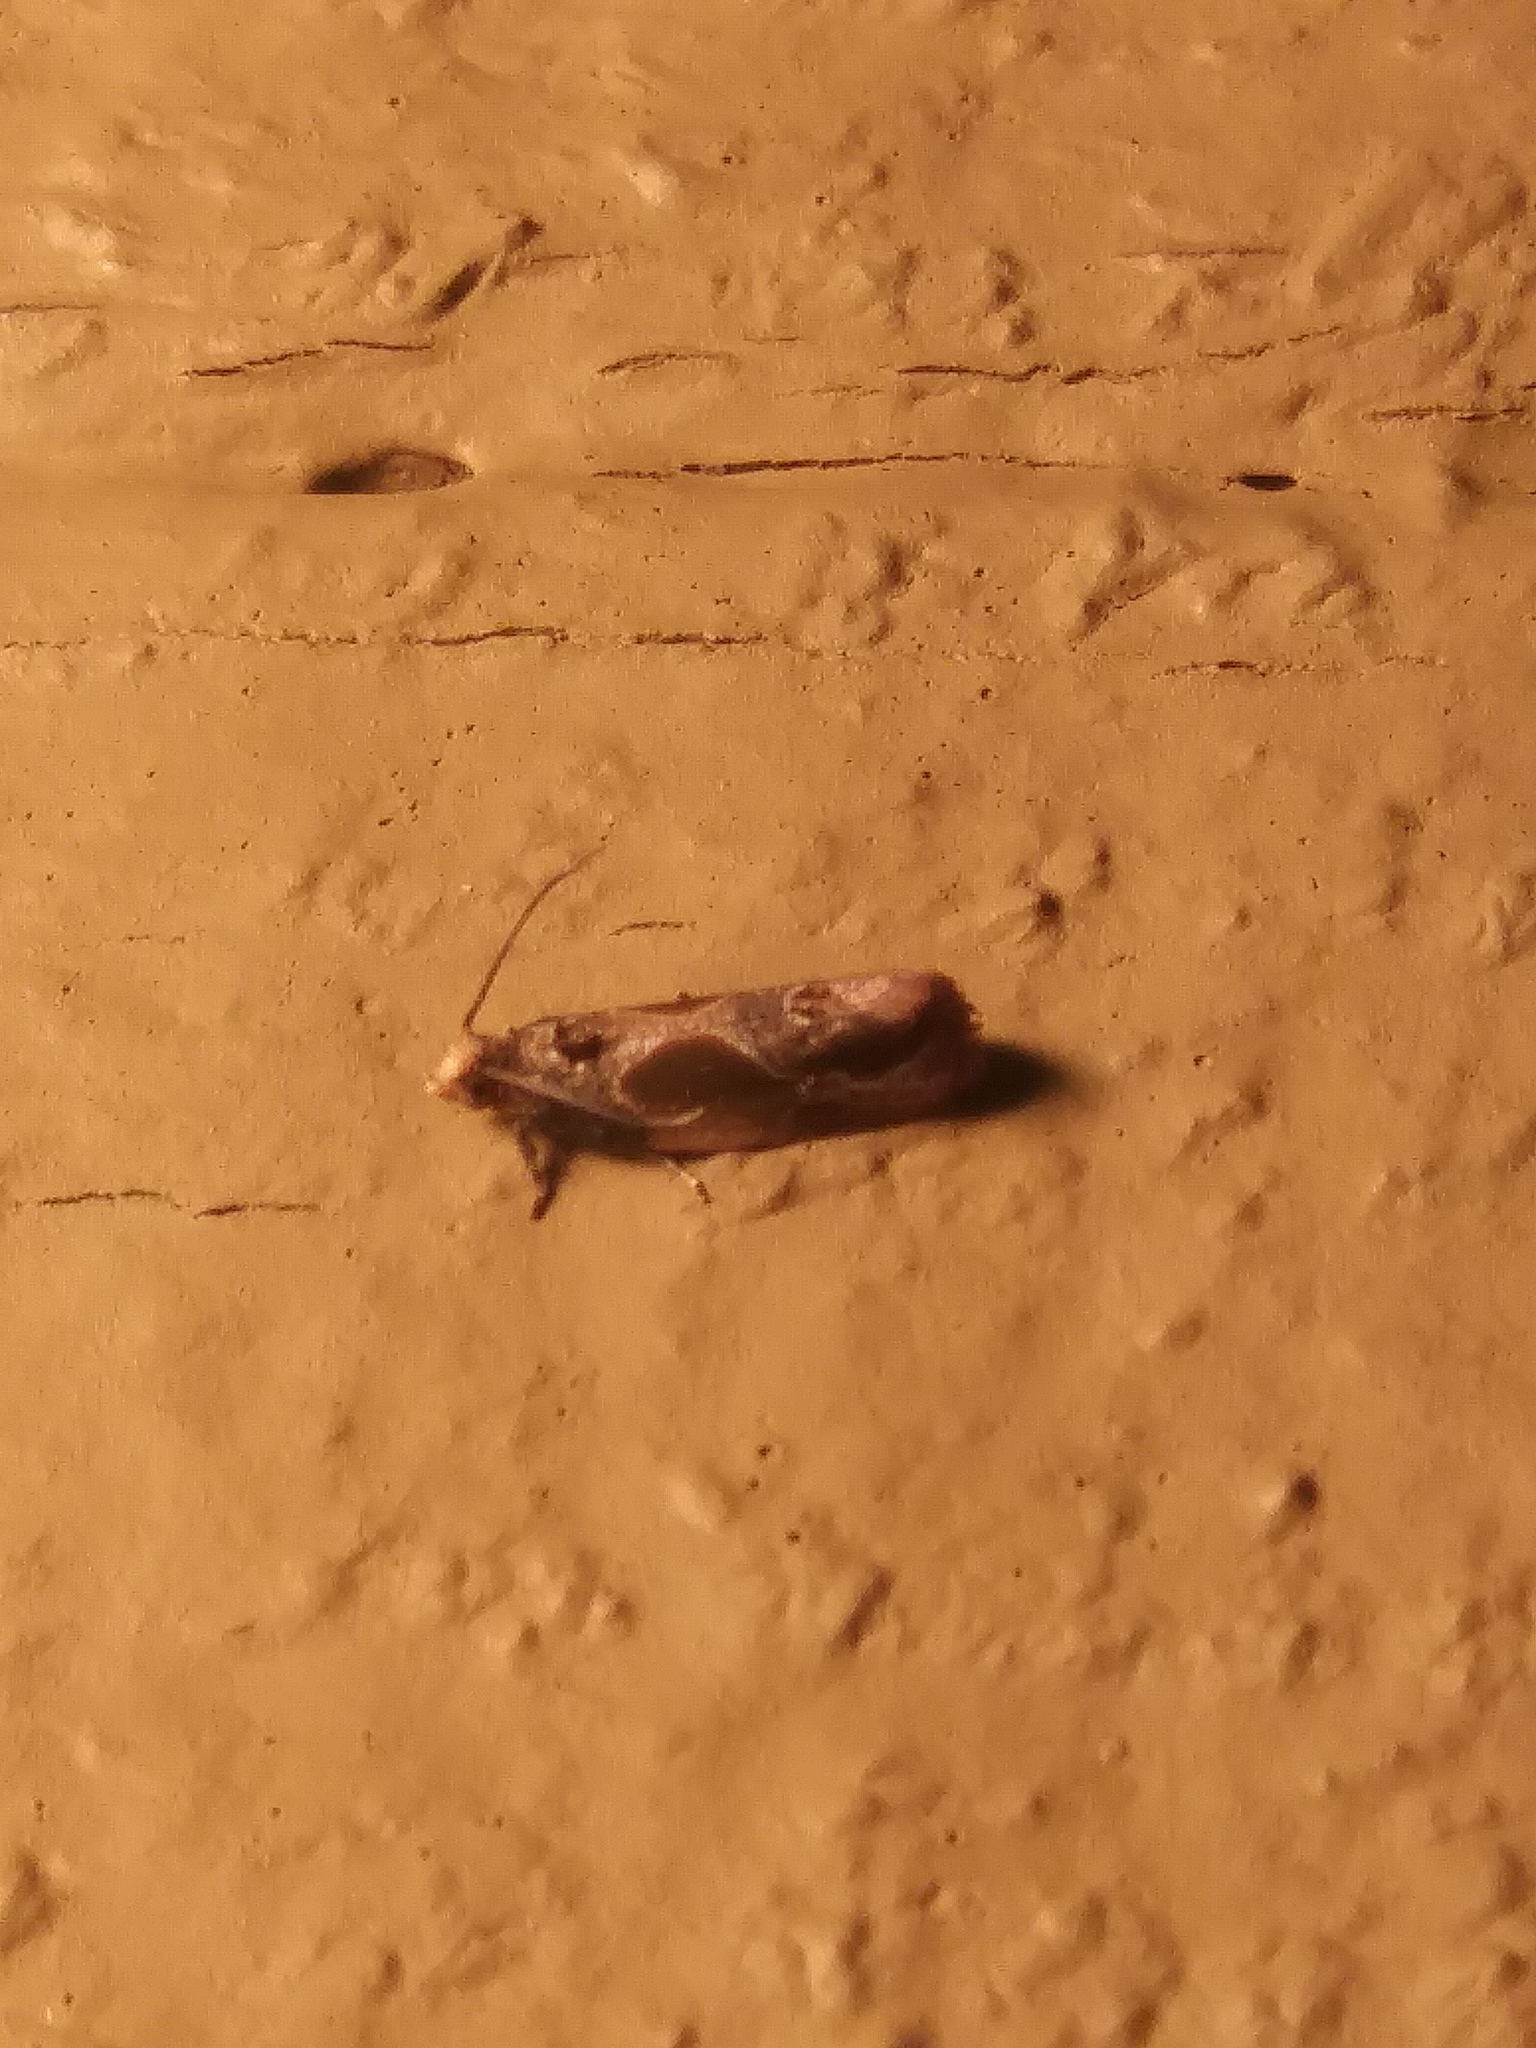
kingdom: Animalia
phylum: Arthropoda
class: Insecta
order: Lepidoptera
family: Tortricidae
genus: Eumarozia
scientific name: Eumarozia malachitana
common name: Sculptured moth
